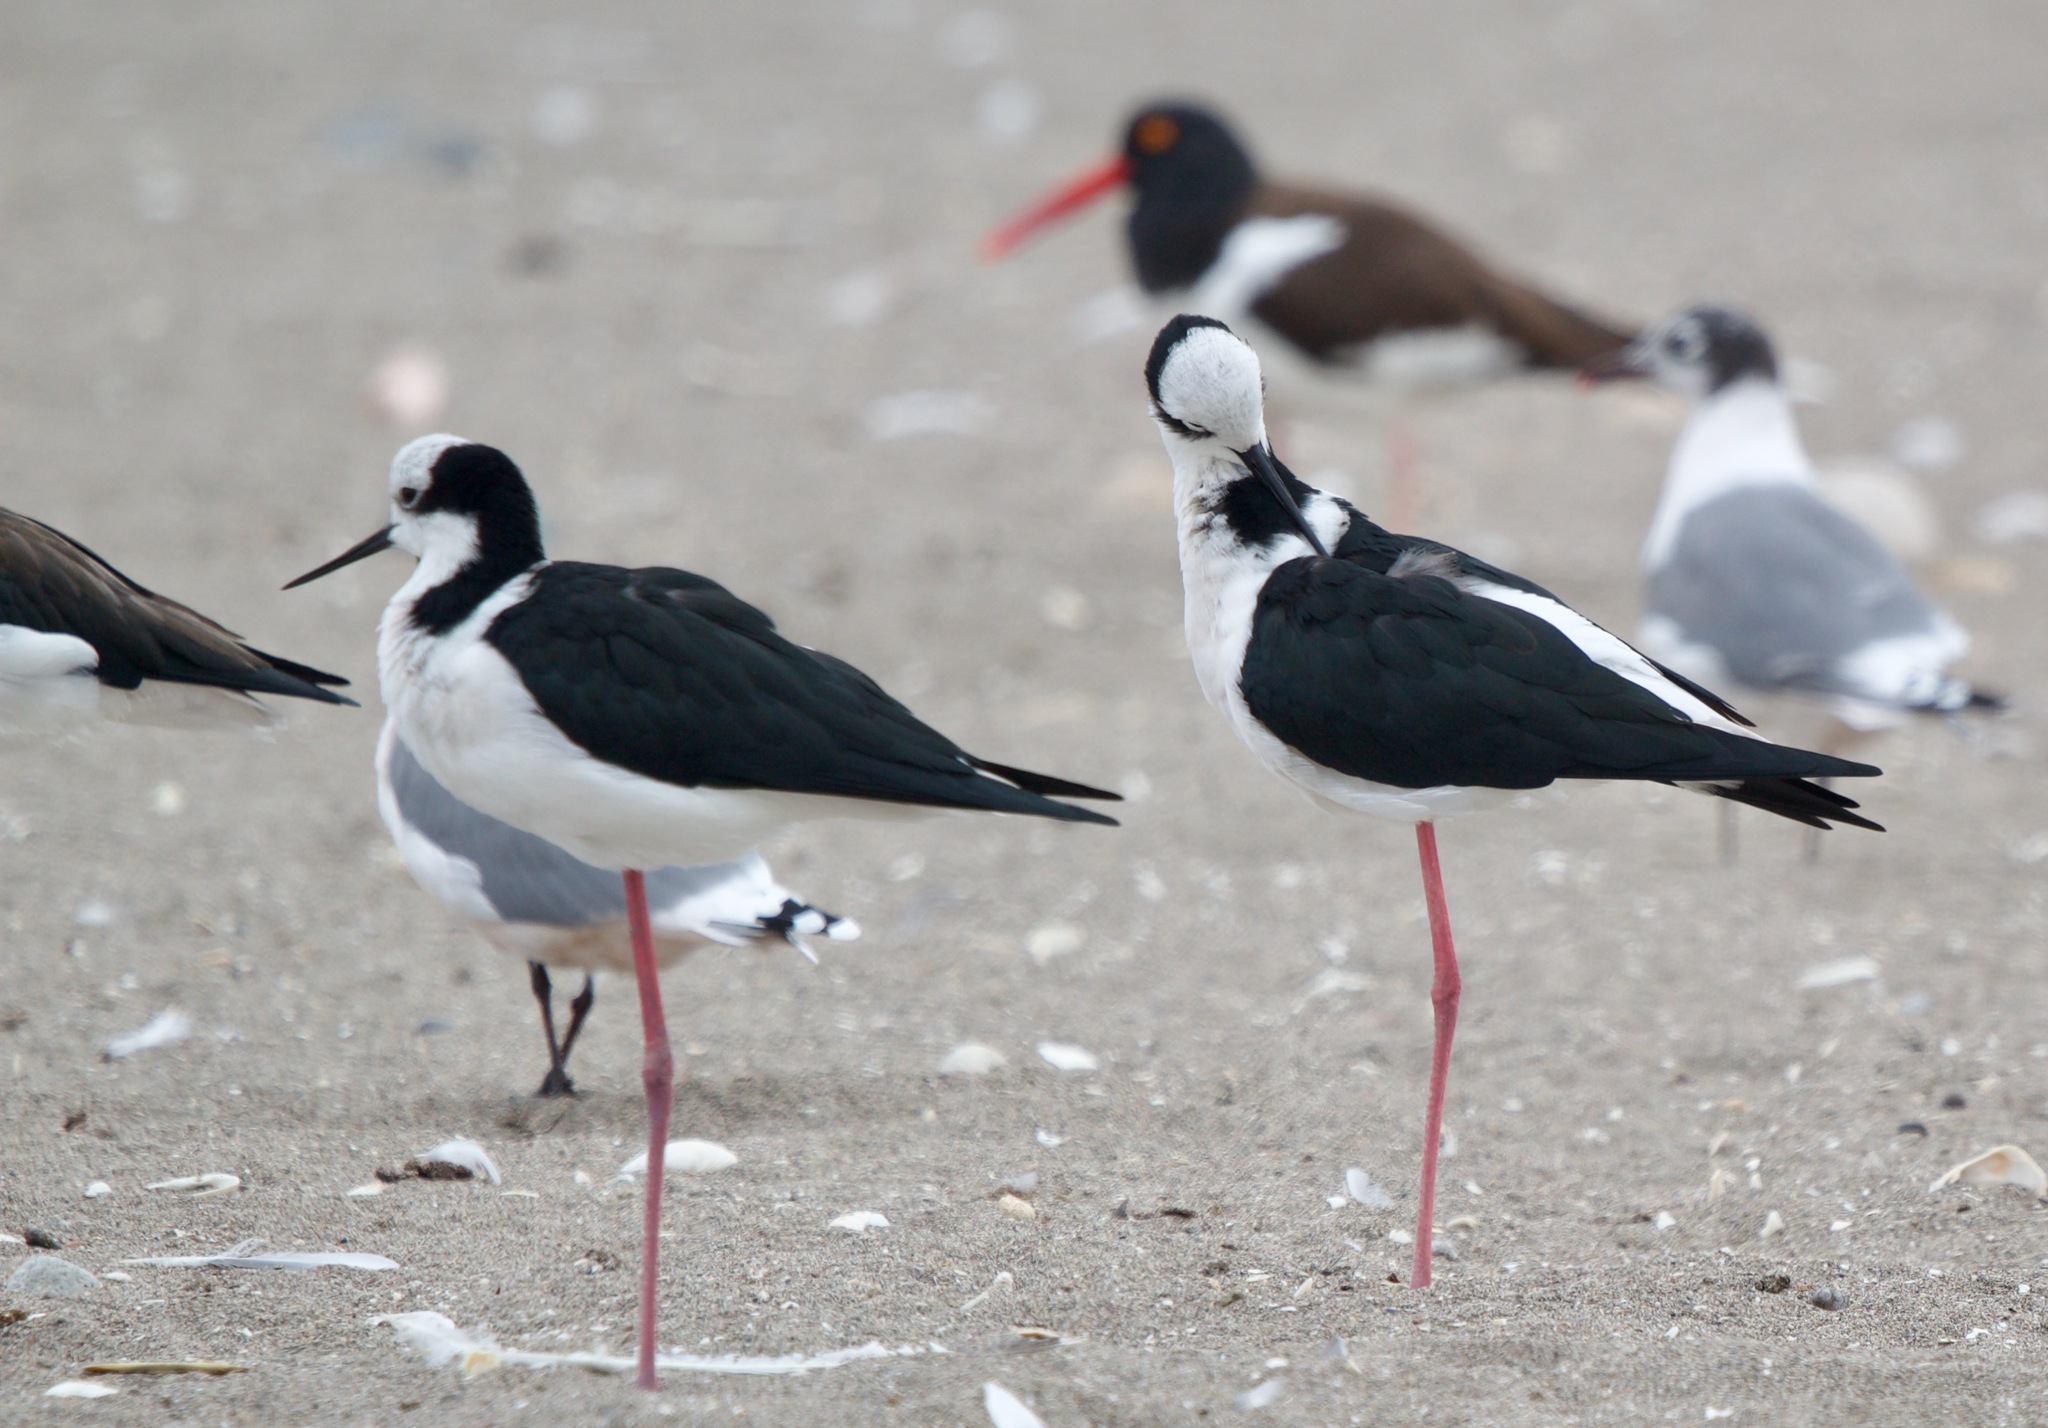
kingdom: Animalia
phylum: Chordata
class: Aves
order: Charadriiformes
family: Recurvirostridae
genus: Himantopus
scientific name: Himantopus mexicanus
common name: Black-necked stilt
